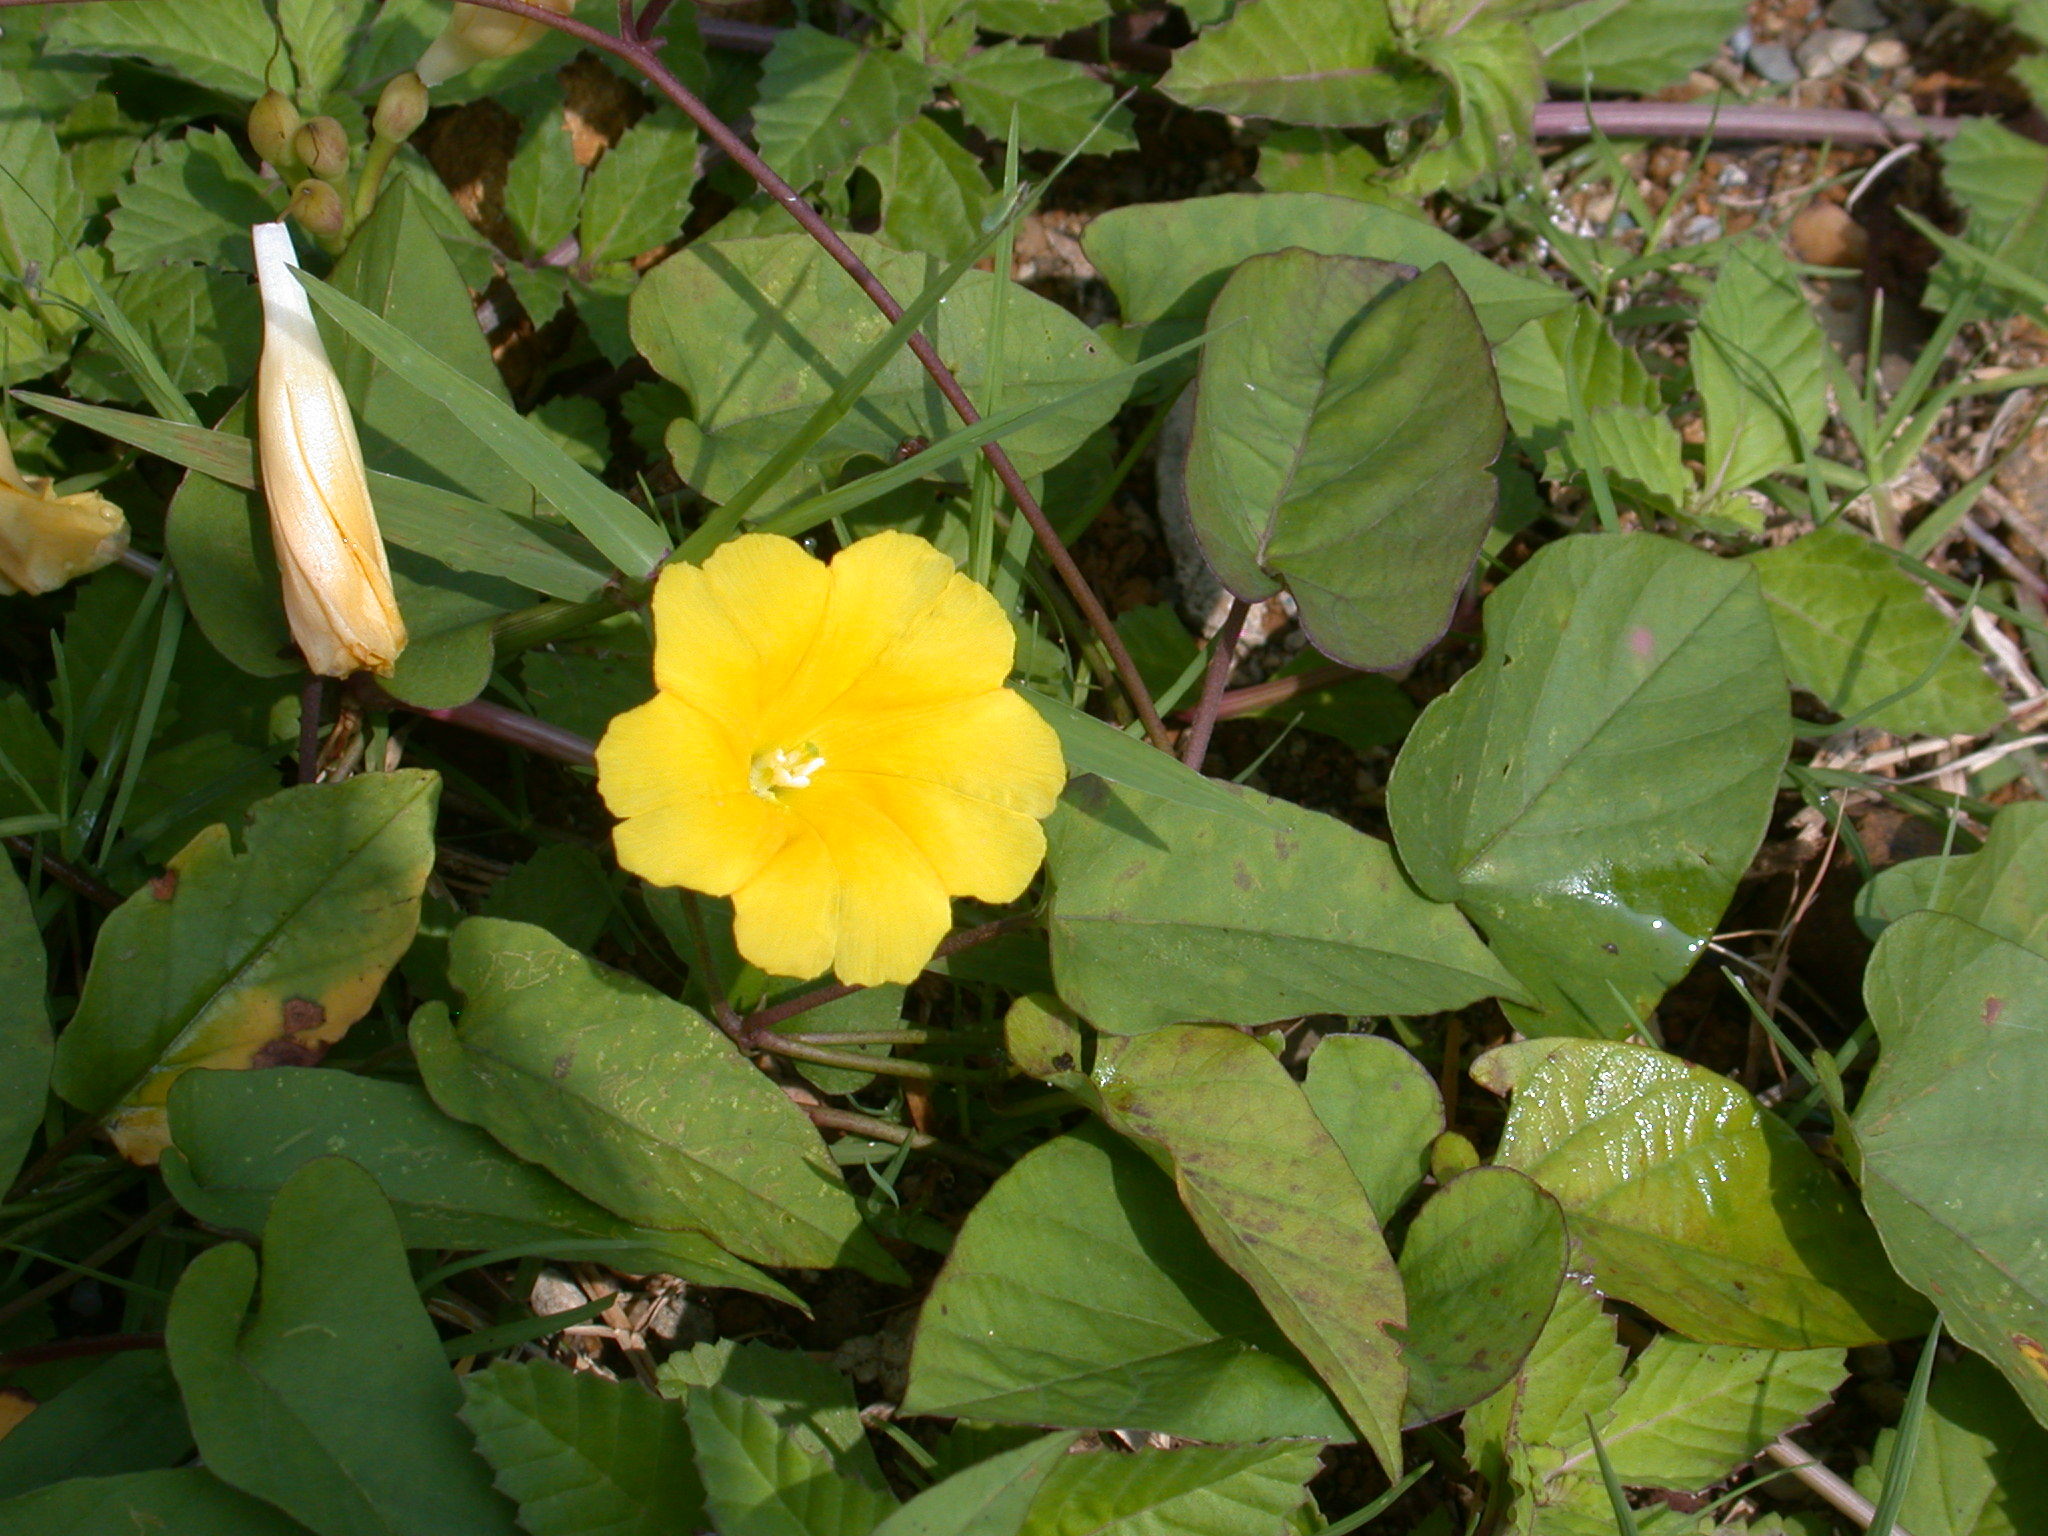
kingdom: Plantae
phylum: Tracheophyta
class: Magnoliopsida
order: Solanales
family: Convolvulaceae
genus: Camonea
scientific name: Camonea umbellata
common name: Hogvine
